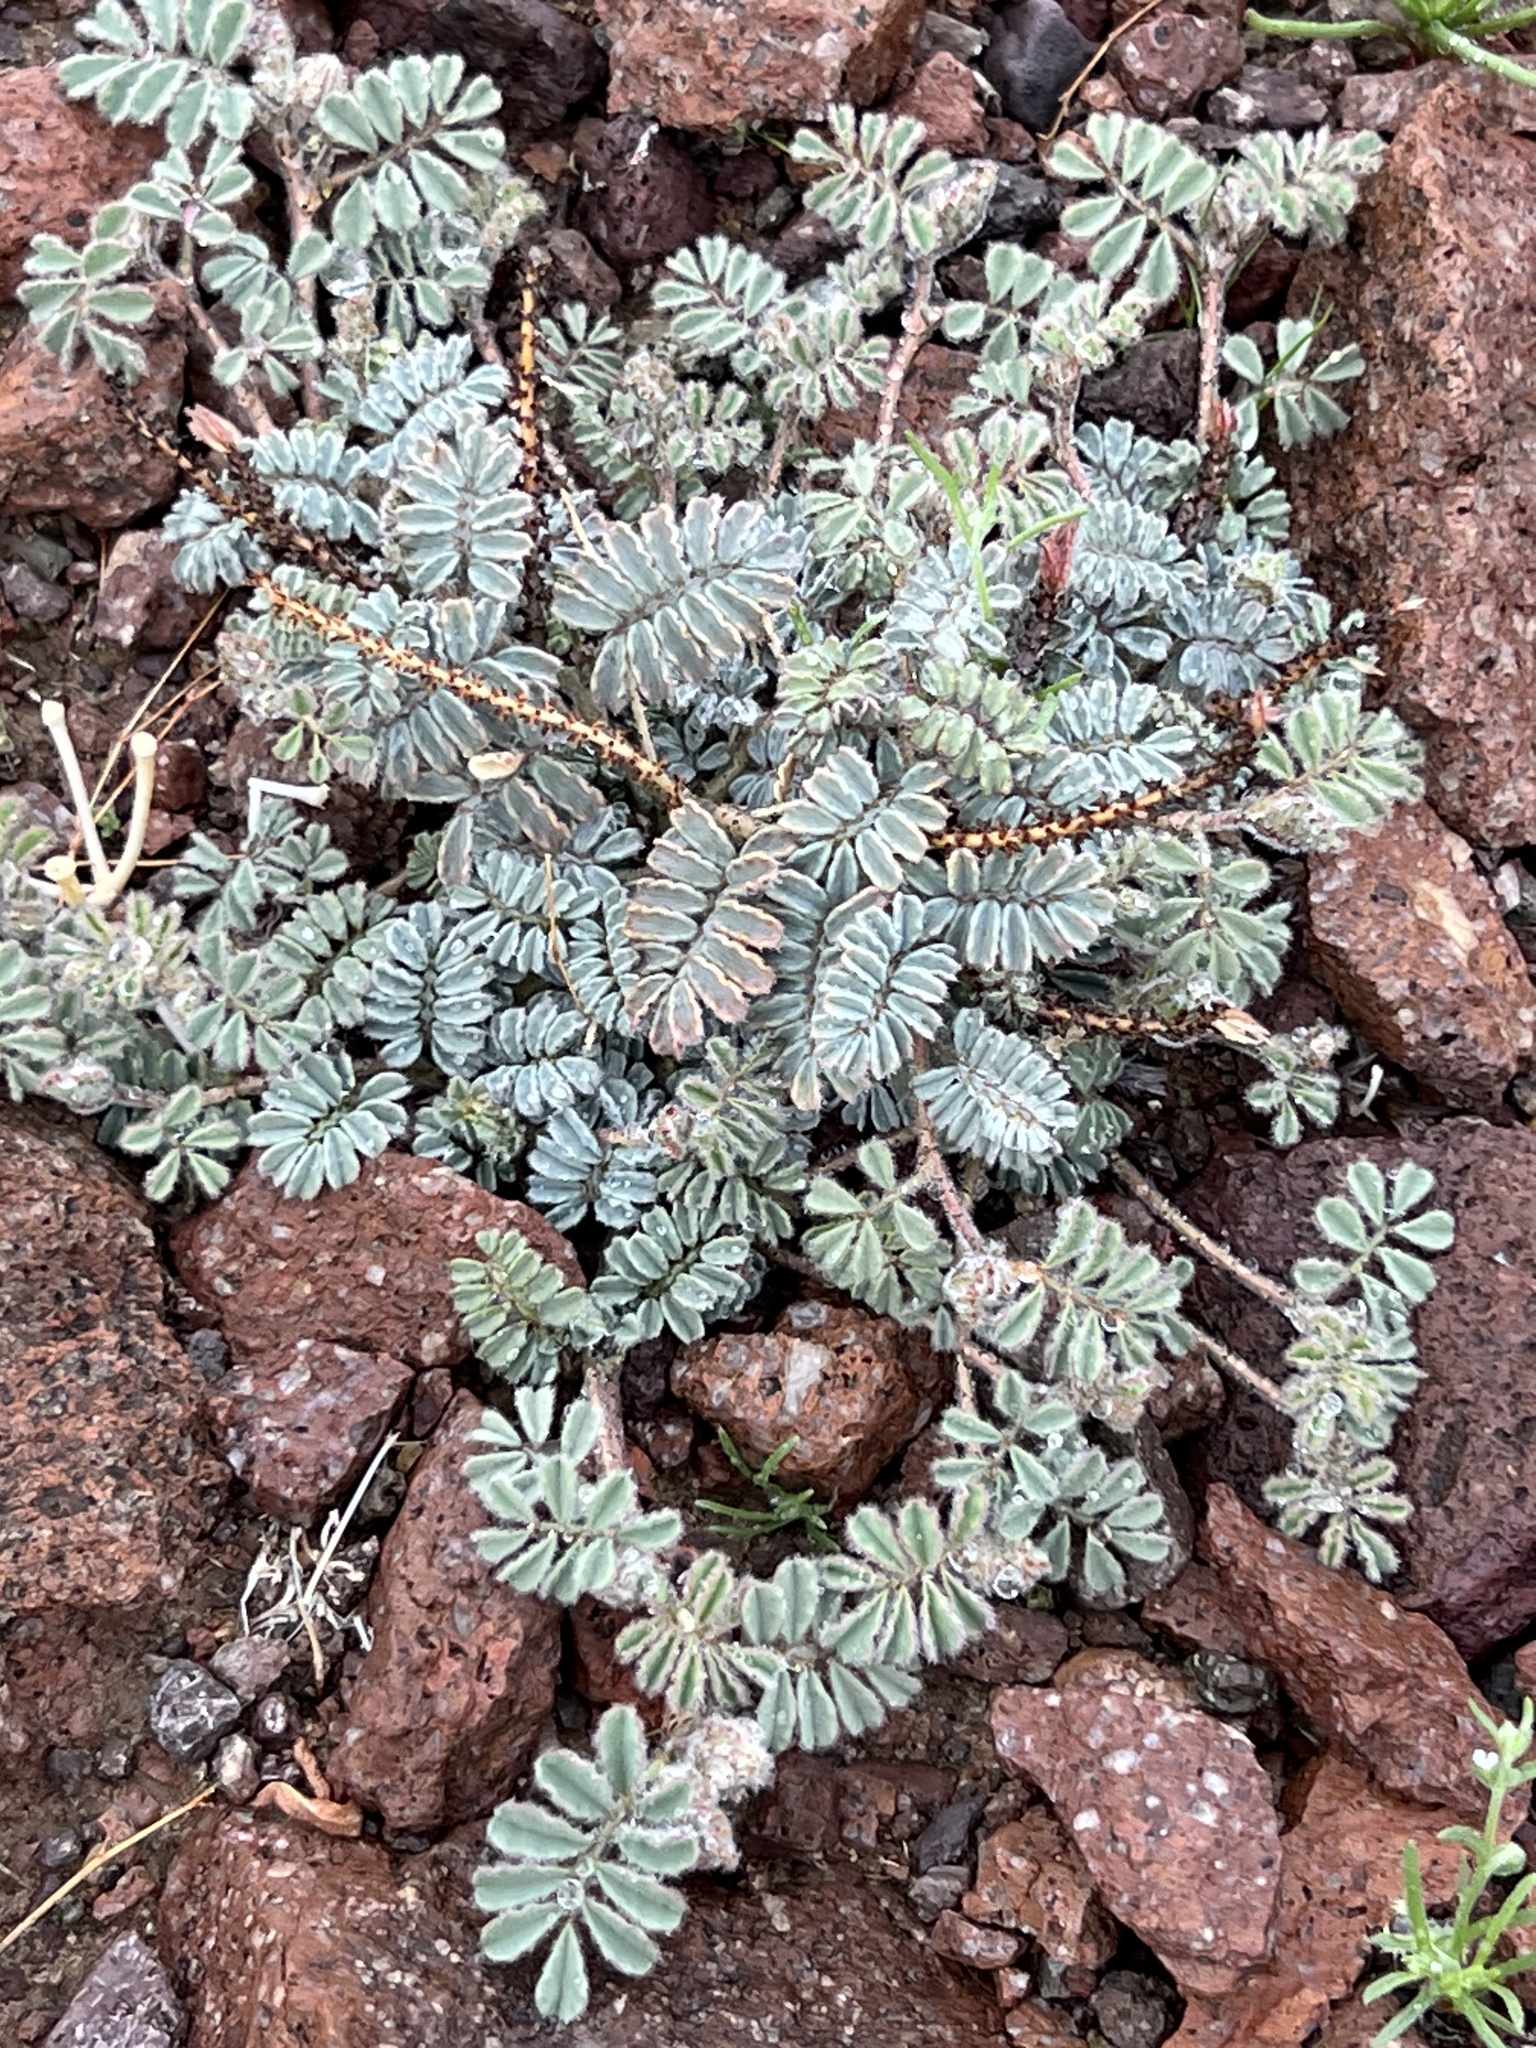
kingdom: Plantae
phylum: Tracheophyta
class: Magnoliopsida
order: Fabales
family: Fabaceae
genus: Dalea
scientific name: Dalea mollissima
